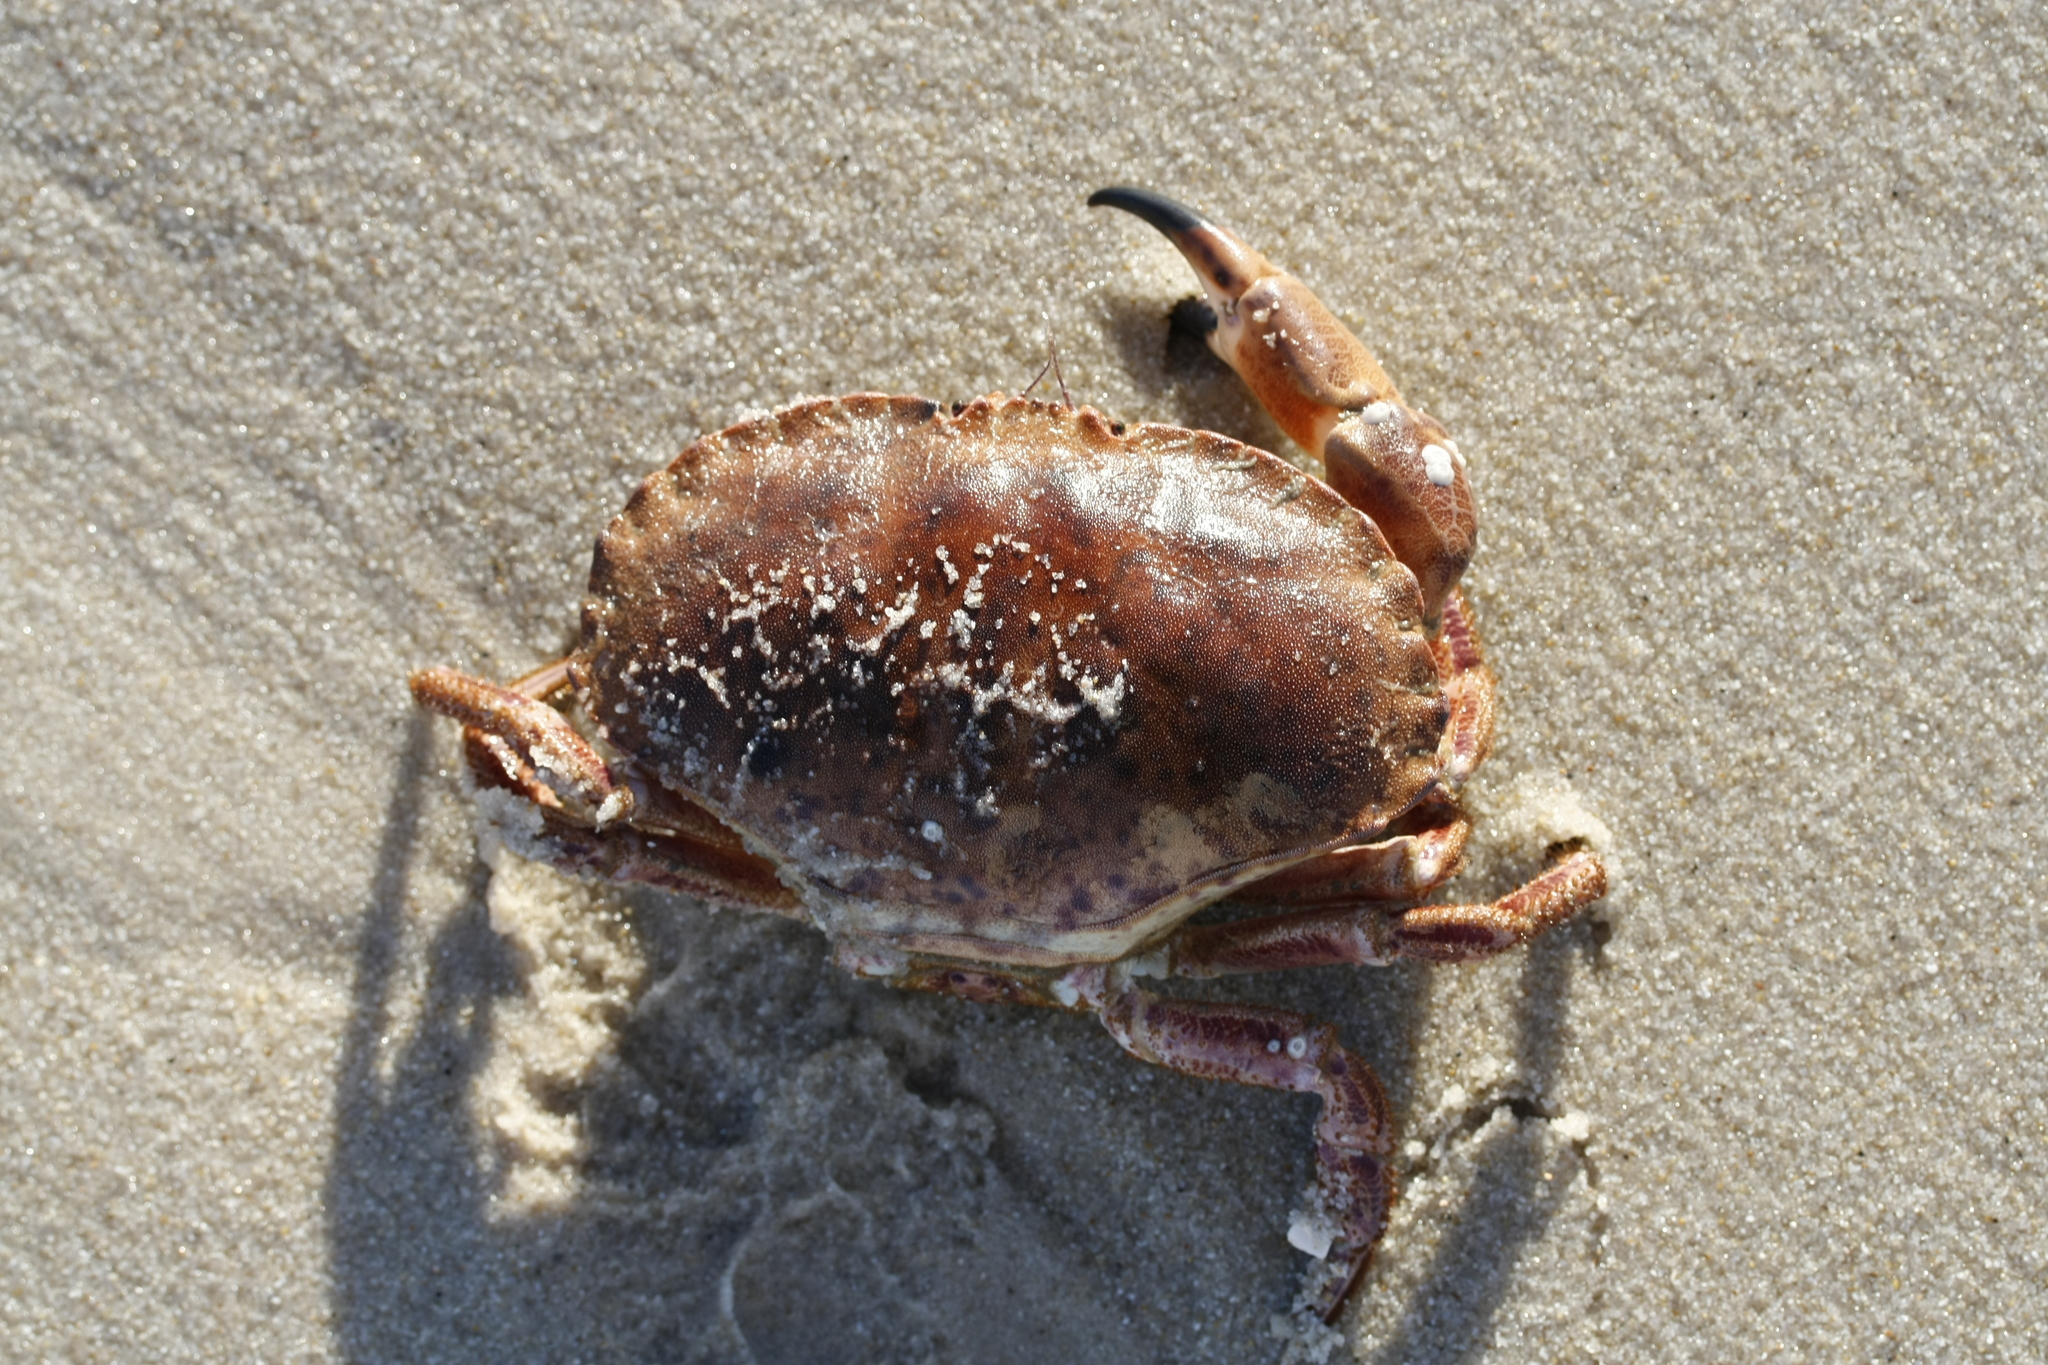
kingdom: Animalia
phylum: Arthropoda
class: Malacostraca
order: Decapoda
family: Cancridae
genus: Cancer
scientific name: Cancer pagurus
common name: Edible crab
